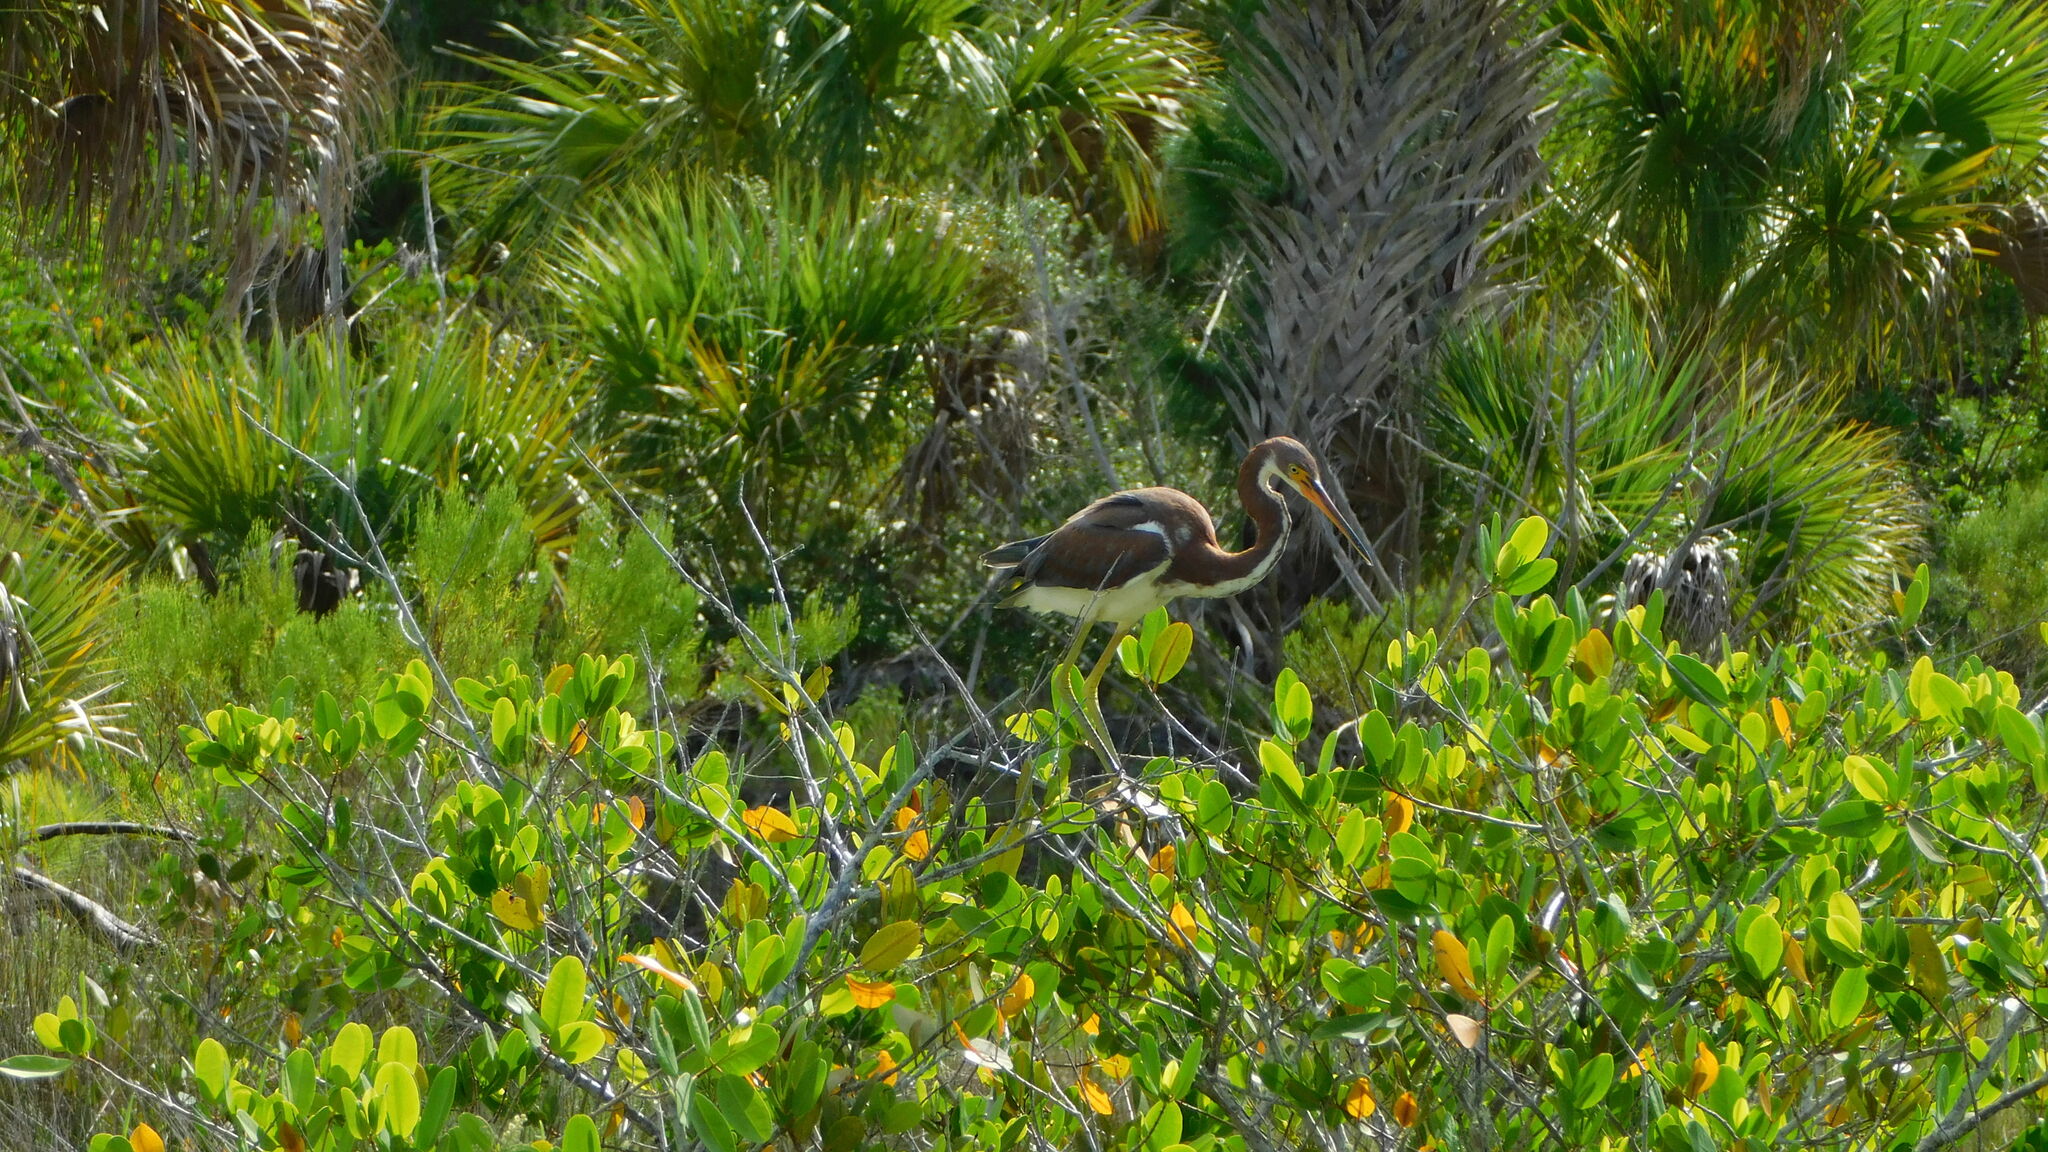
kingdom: Animalia
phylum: Chordata
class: Aves
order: Pelecaniformes
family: Ardeidae
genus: Egretta
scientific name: Egretta tricolor
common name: Tricolored heron
